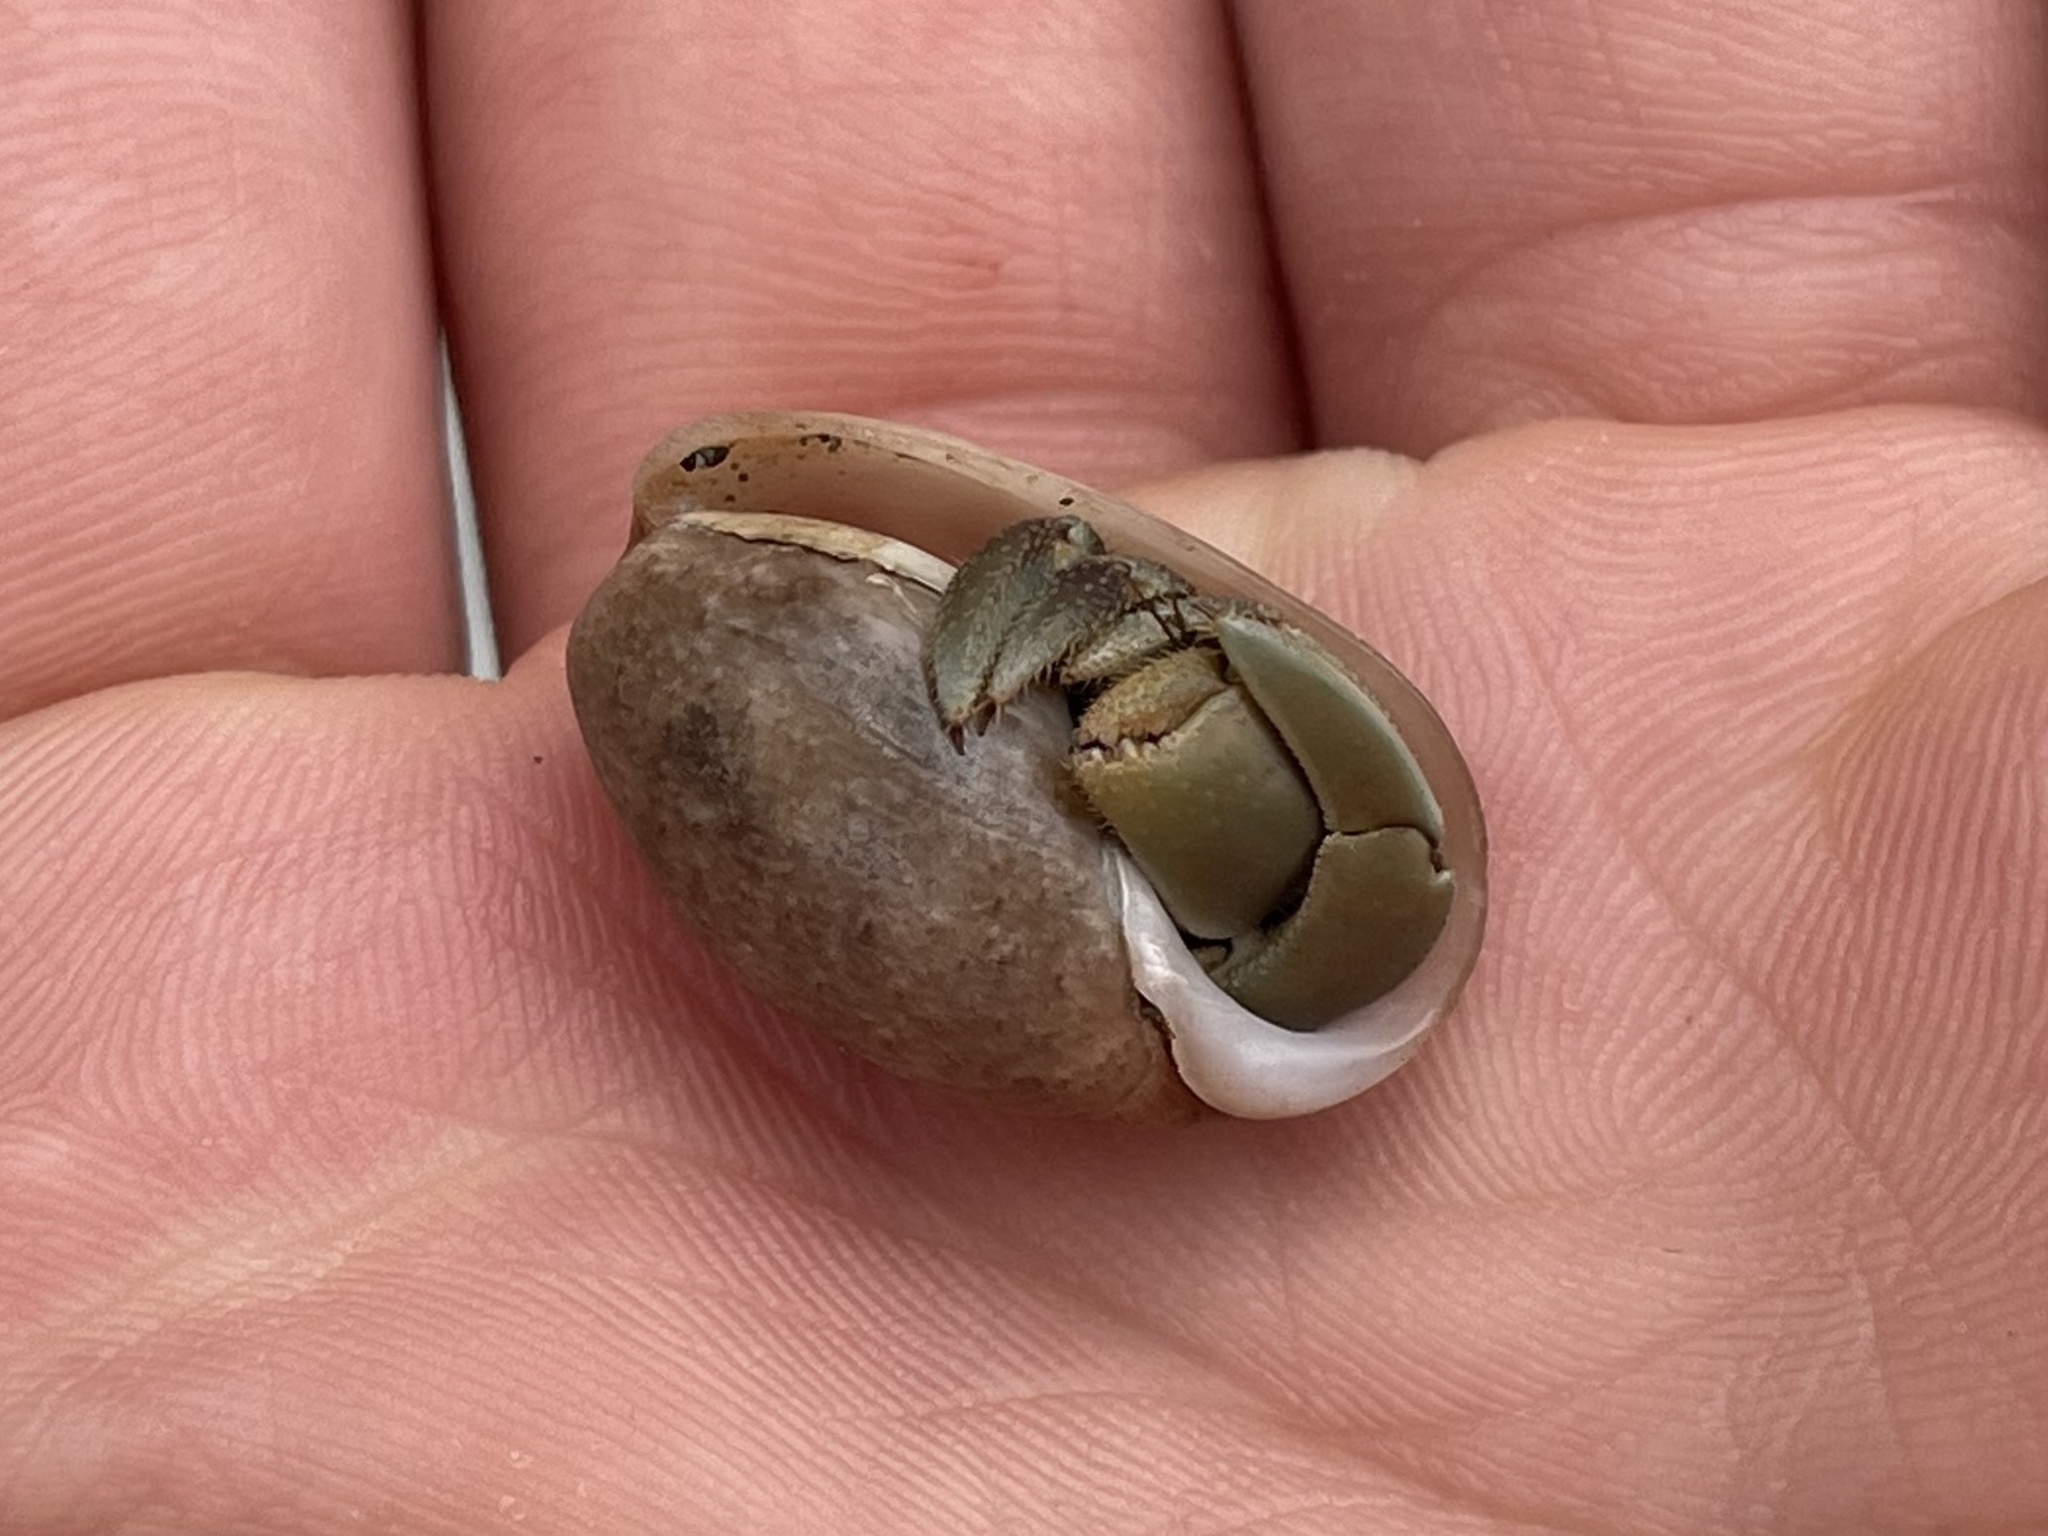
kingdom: Animalia
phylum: Arthropoda
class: Malacostraca
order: Decapoda
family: Coenobitidae
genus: Coenobita
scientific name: Coenobita compressus
